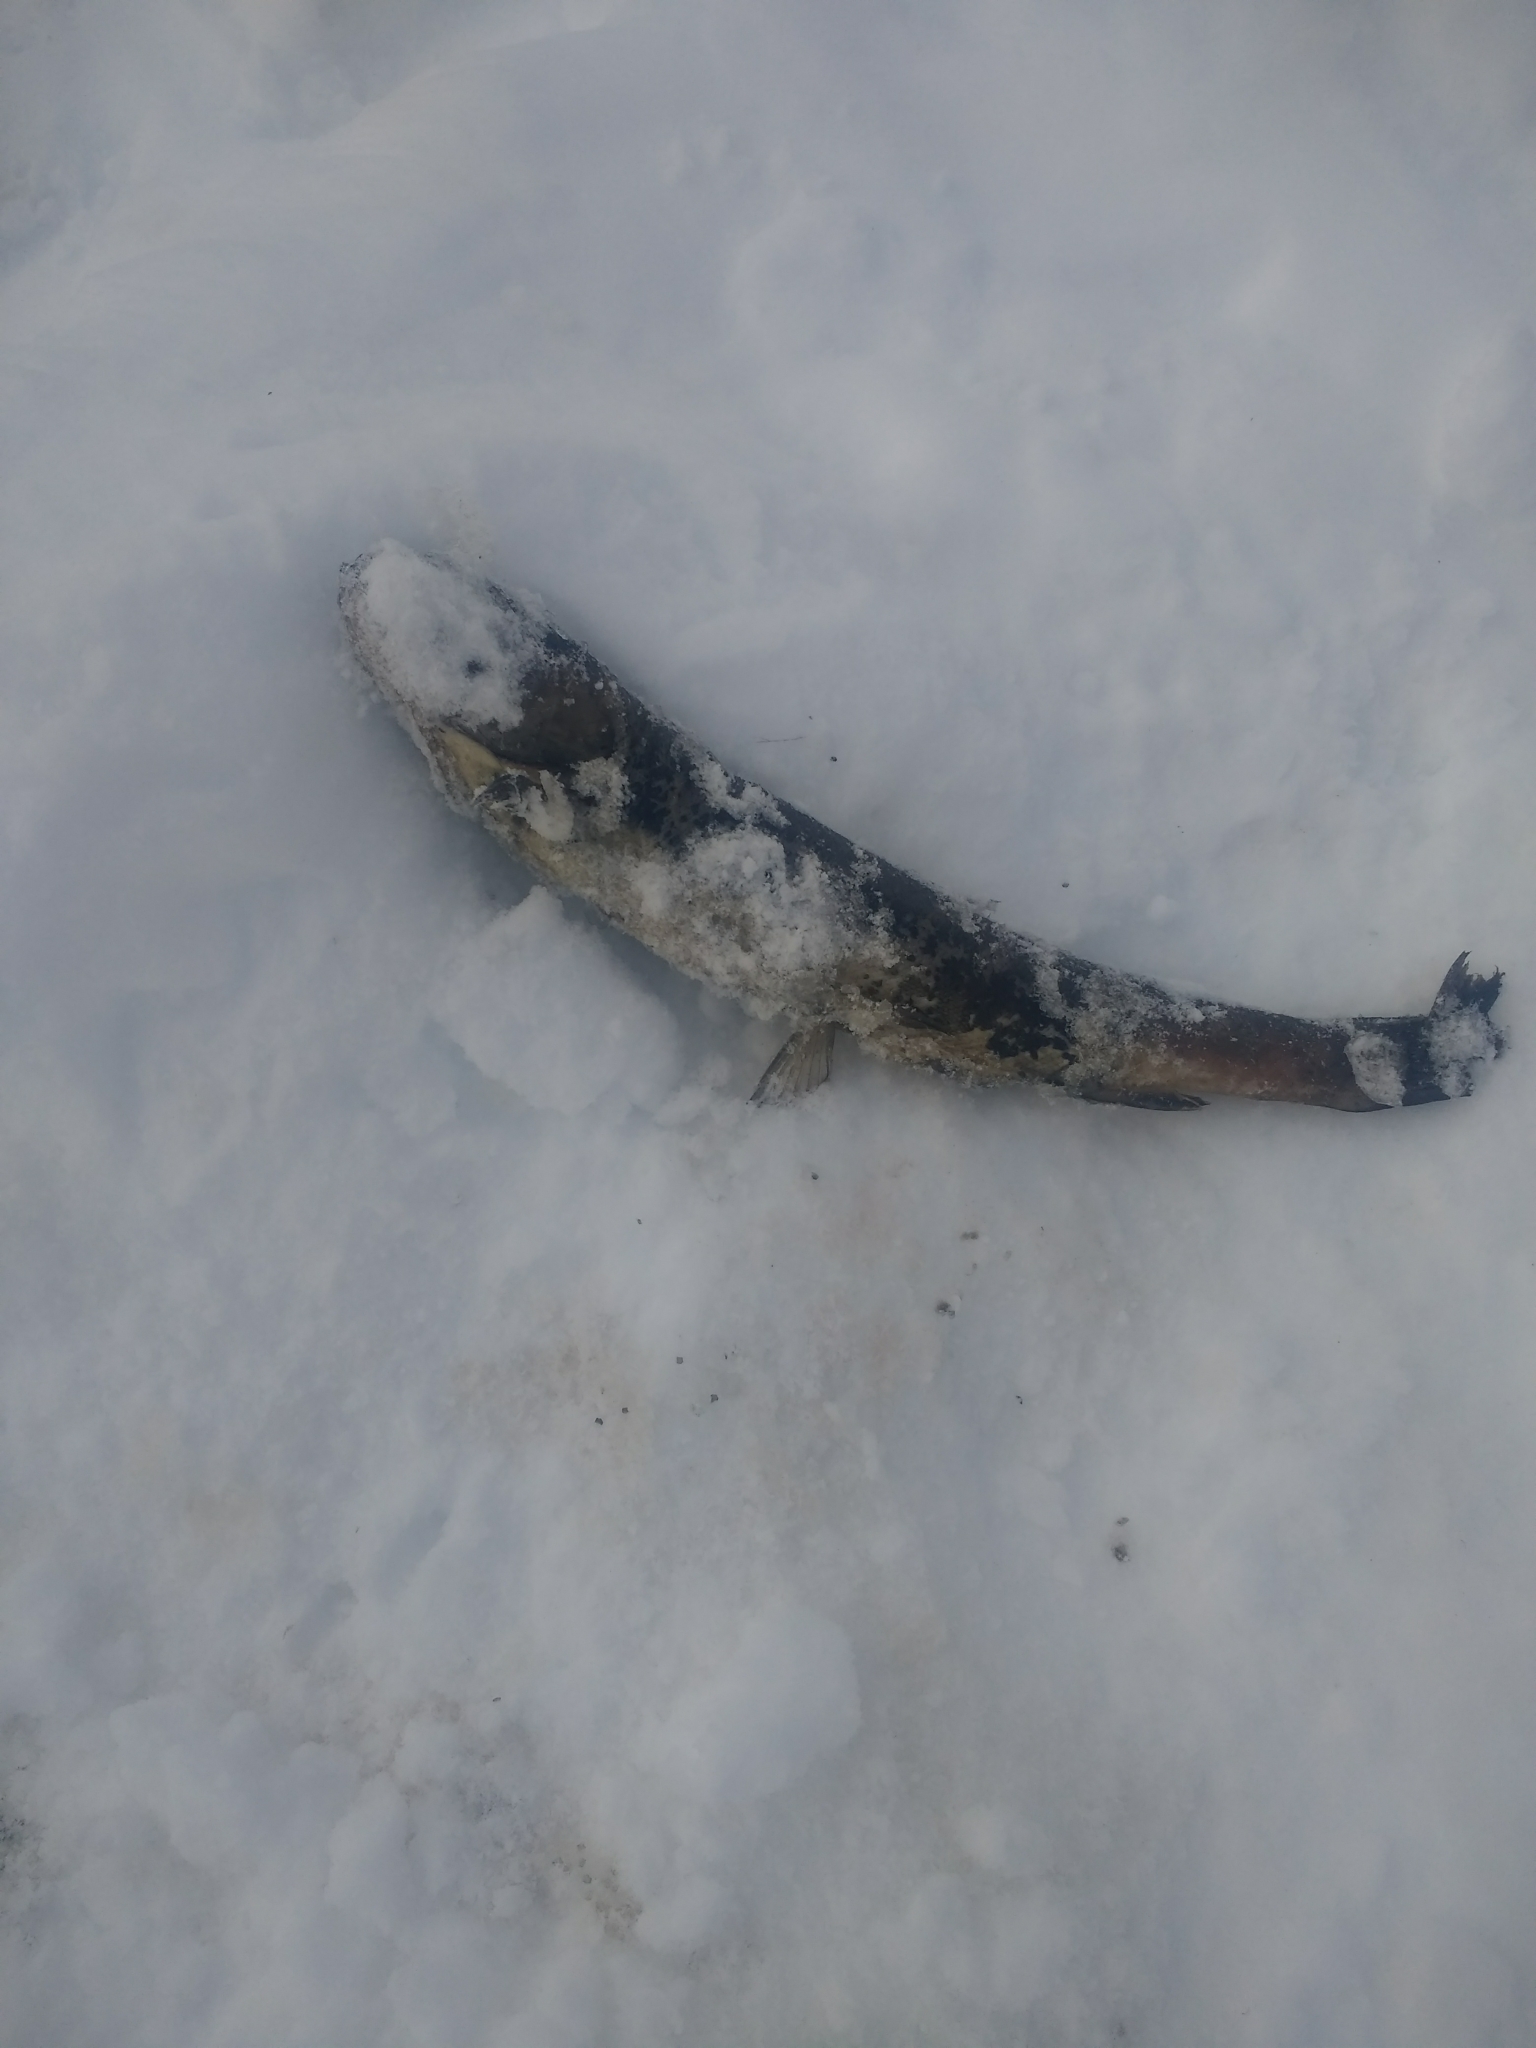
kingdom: Animalia
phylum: Chordata
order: Salmoniformes
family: Salmonidae
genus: Oncorhynchus
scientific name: Oncorhynchus mykiss
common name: Rainbow trout
